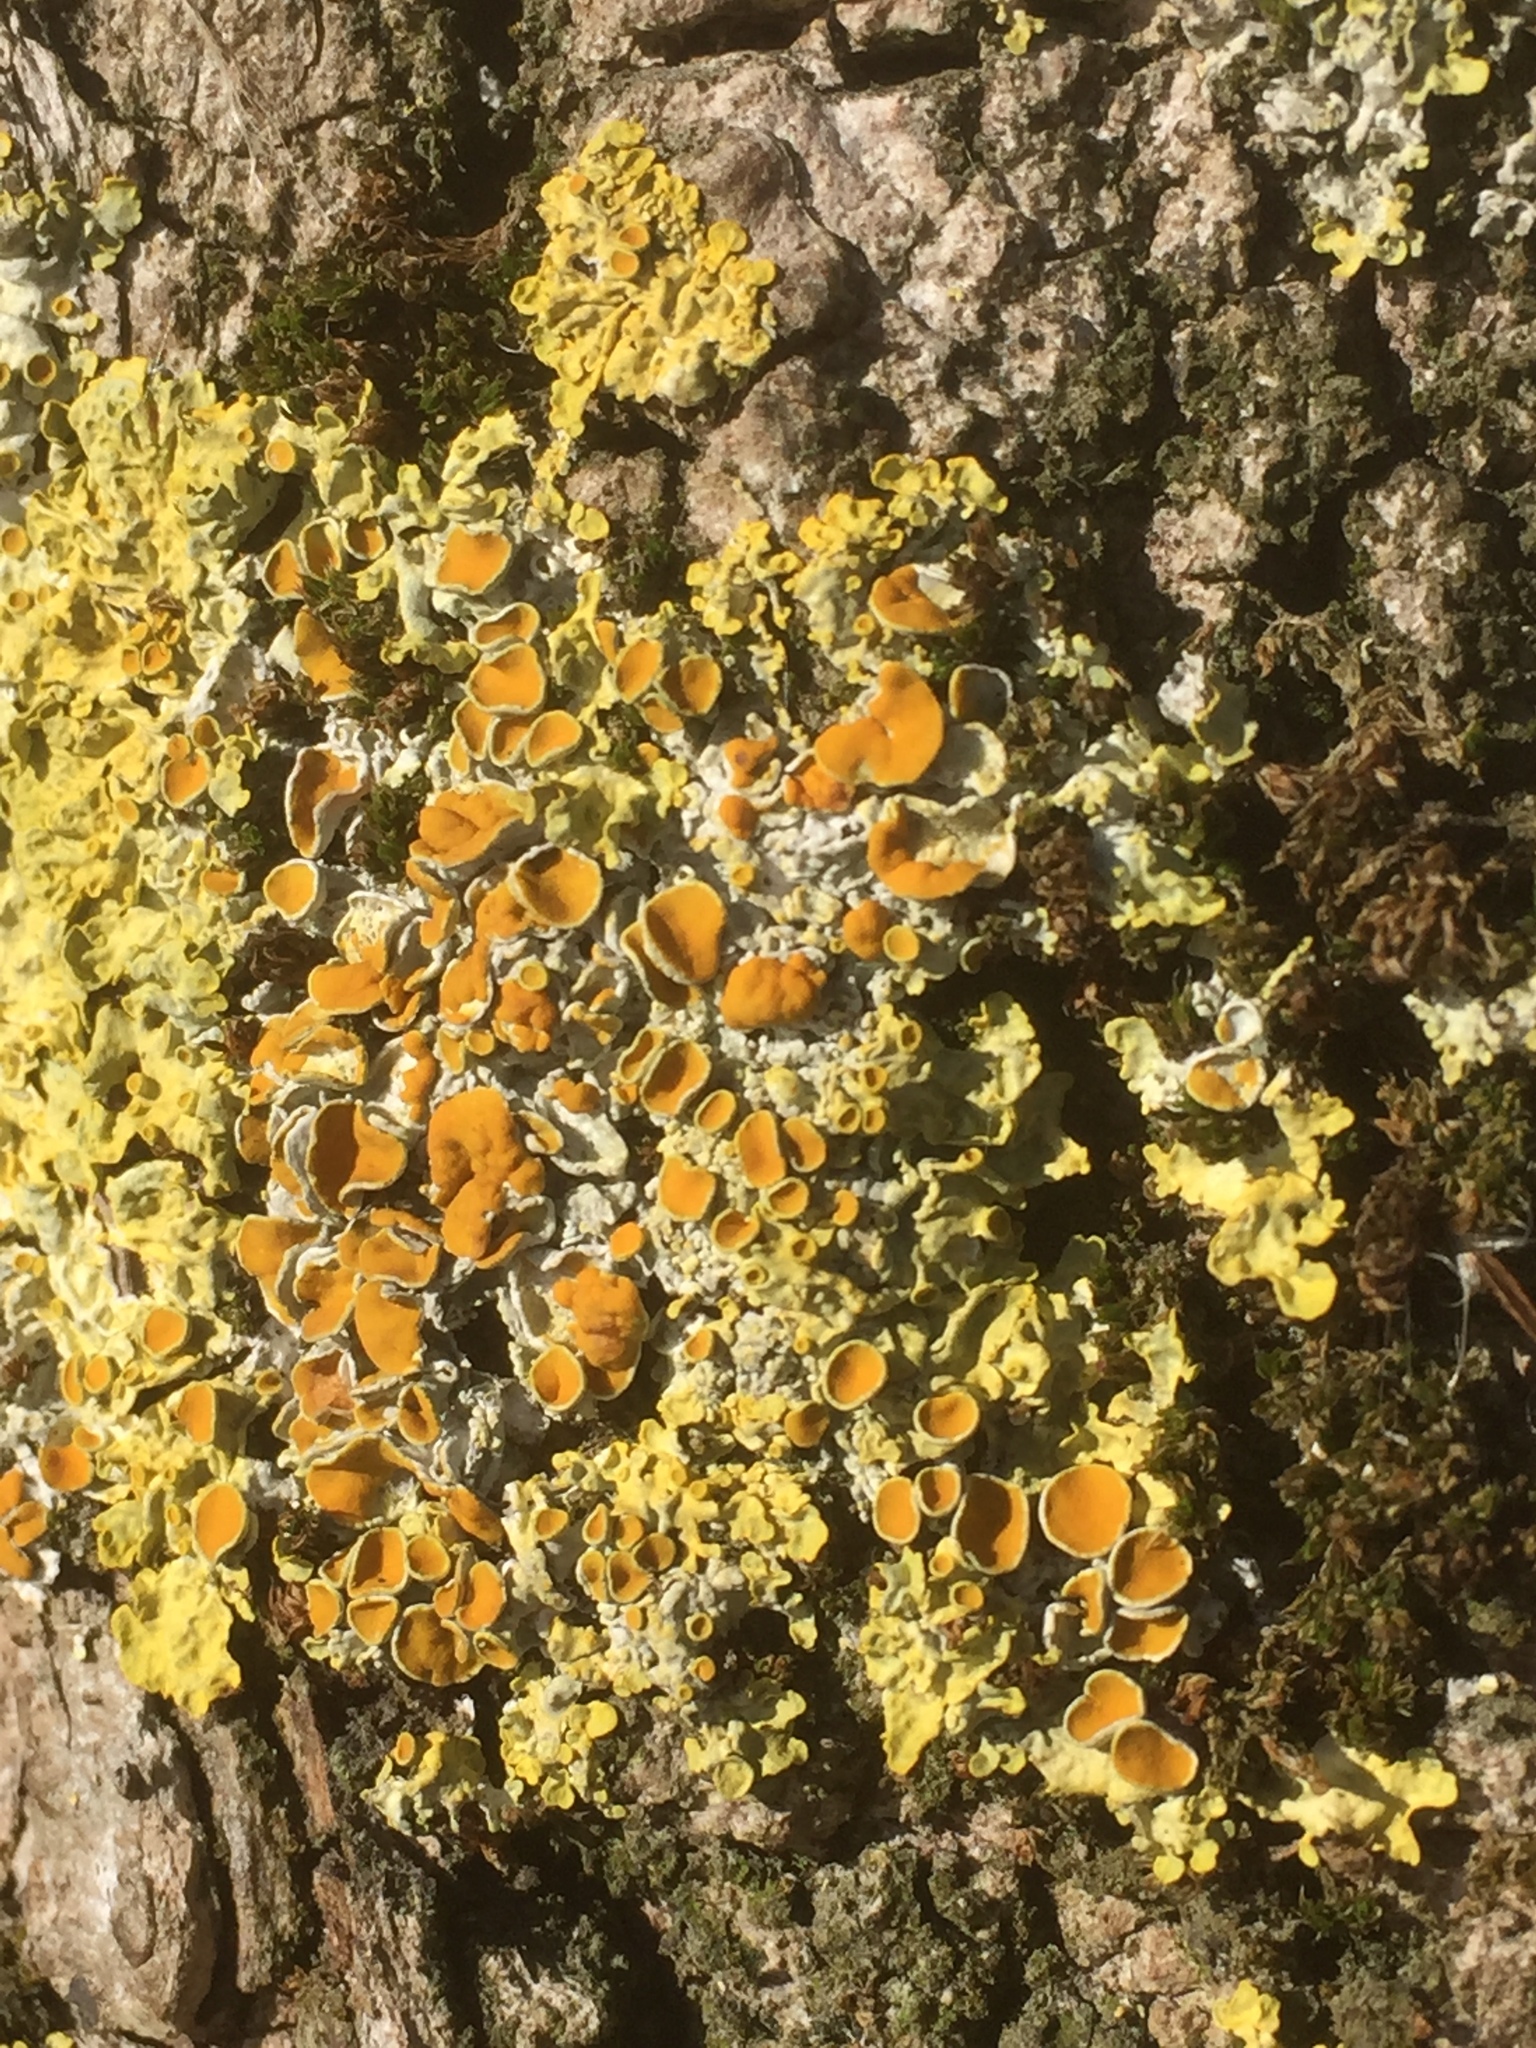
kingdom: Fungi
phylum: Ascomycota
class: Lecanoromycetes
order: Teloschistales
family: Teloschistaceae
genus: Xanthoria
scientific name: Xanthoria parietina
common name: Common orange lichen
